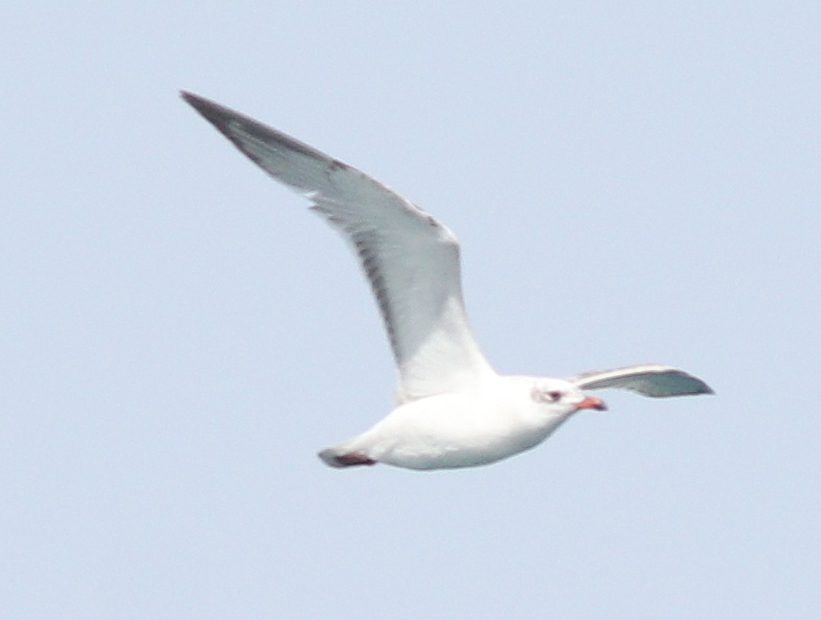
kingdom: Animalia
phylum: Chordata
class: Aves
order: Charadriiformes
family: Laridae
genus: Ichthyaetus
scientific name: Ichthyaetus melanocephalus
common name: Mediterranean gull
